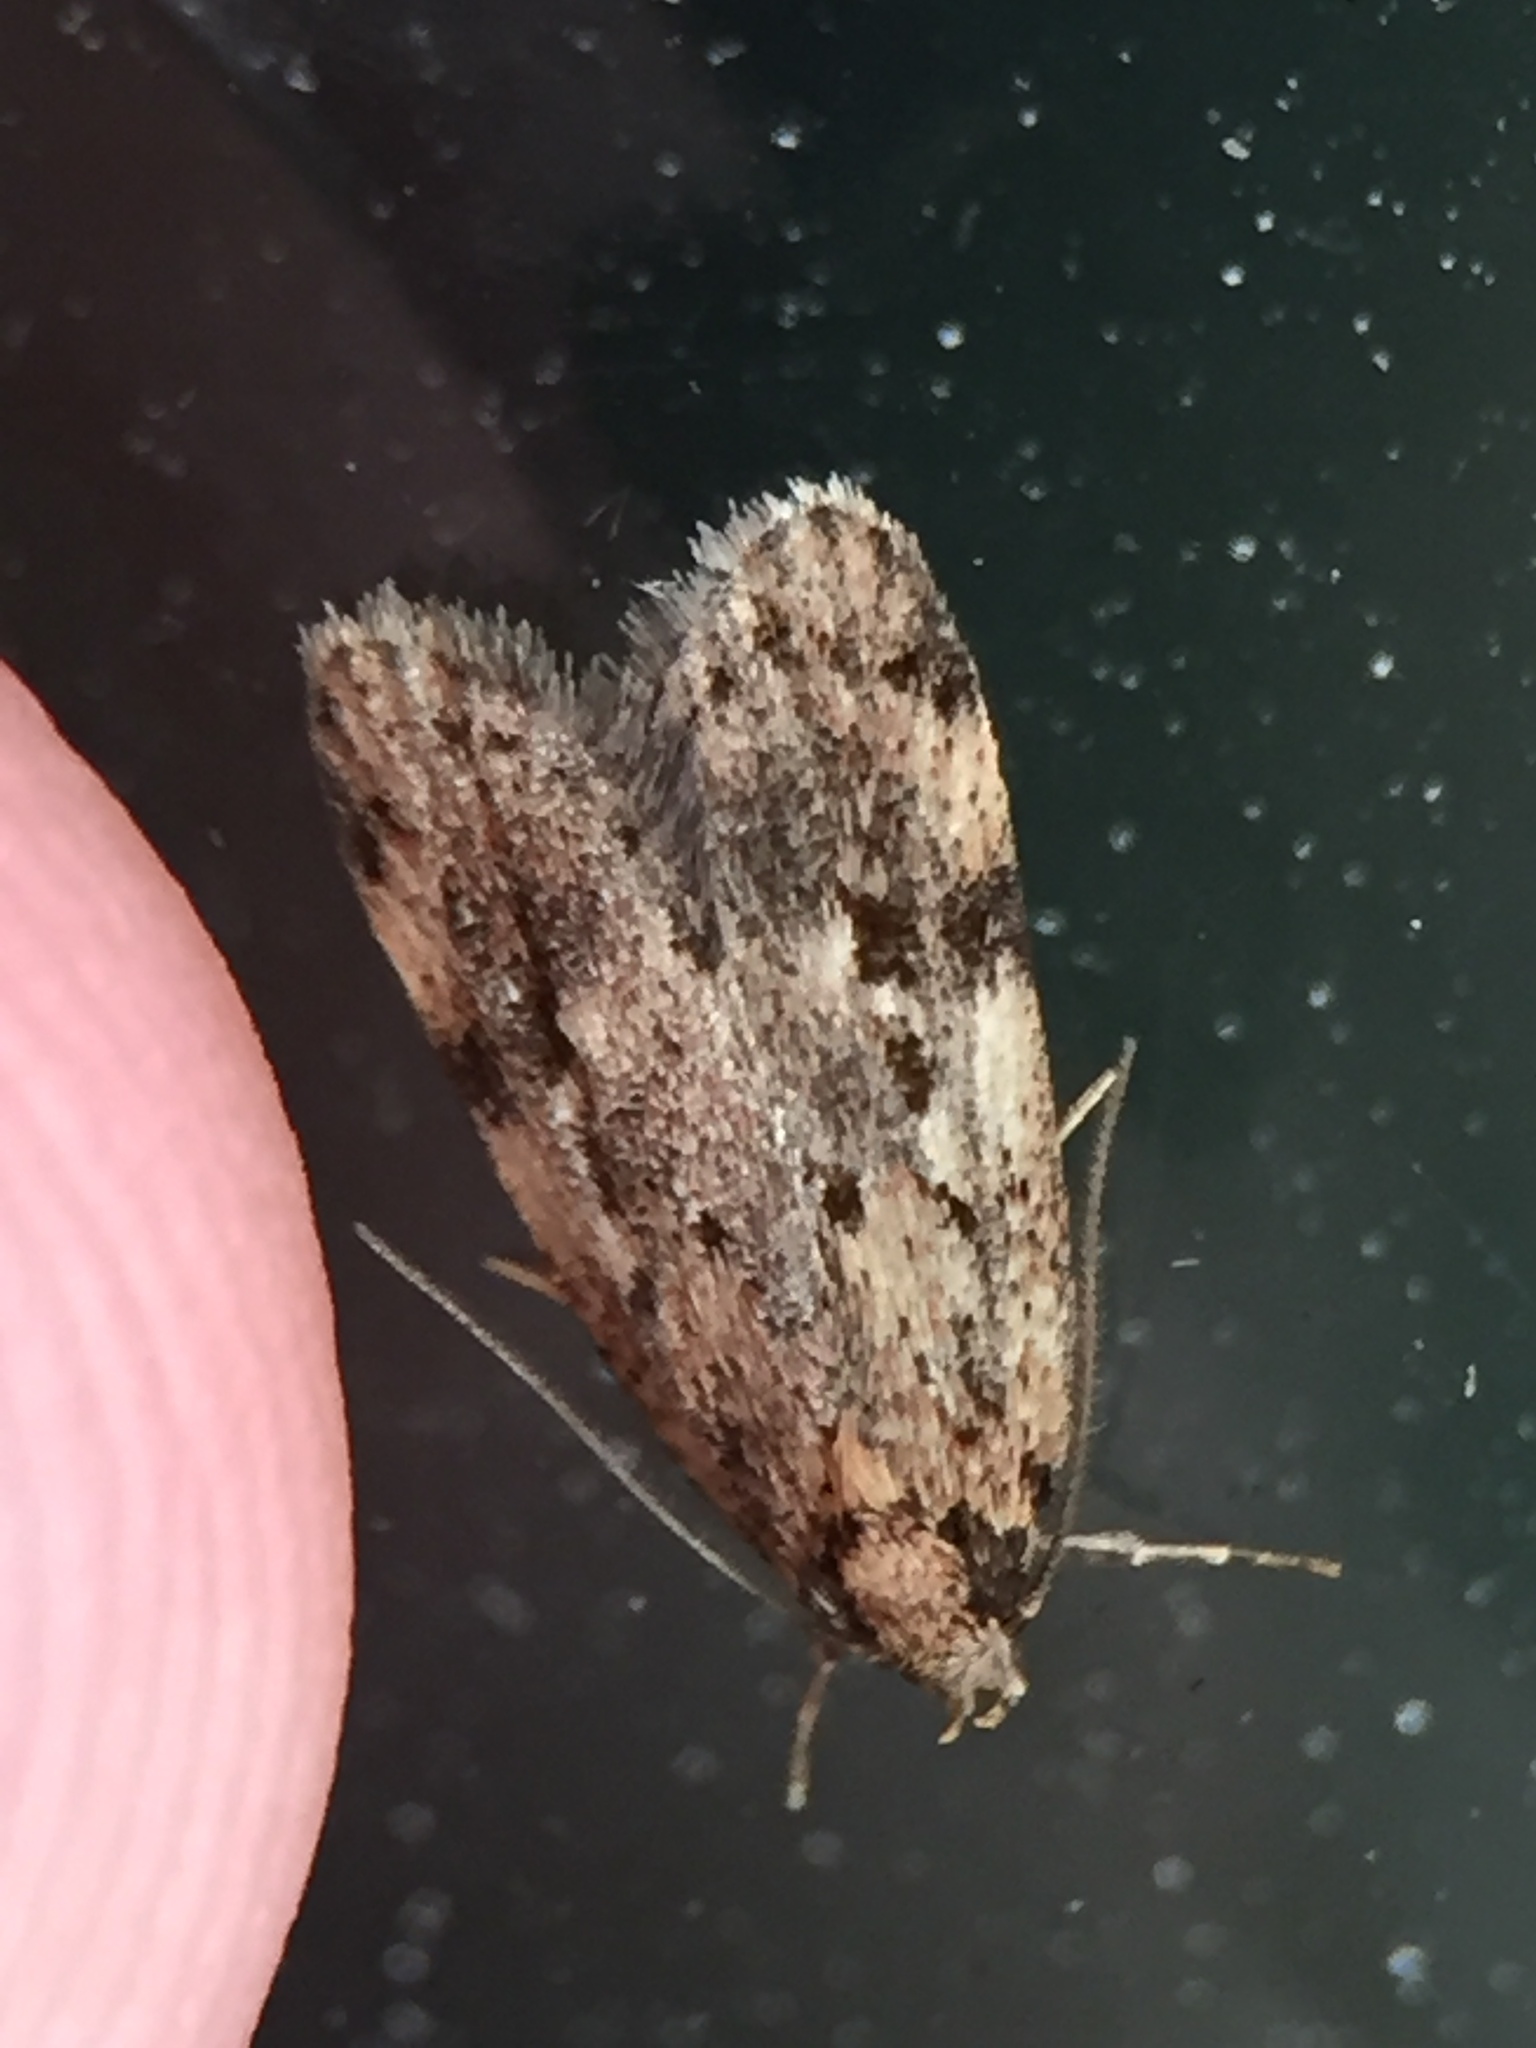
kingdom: Animalia
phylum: Arthropoda
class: Insecta
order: Lepidoptera
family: Oecophoridae
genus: Eulechria
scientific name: Eulechria zophoessa
